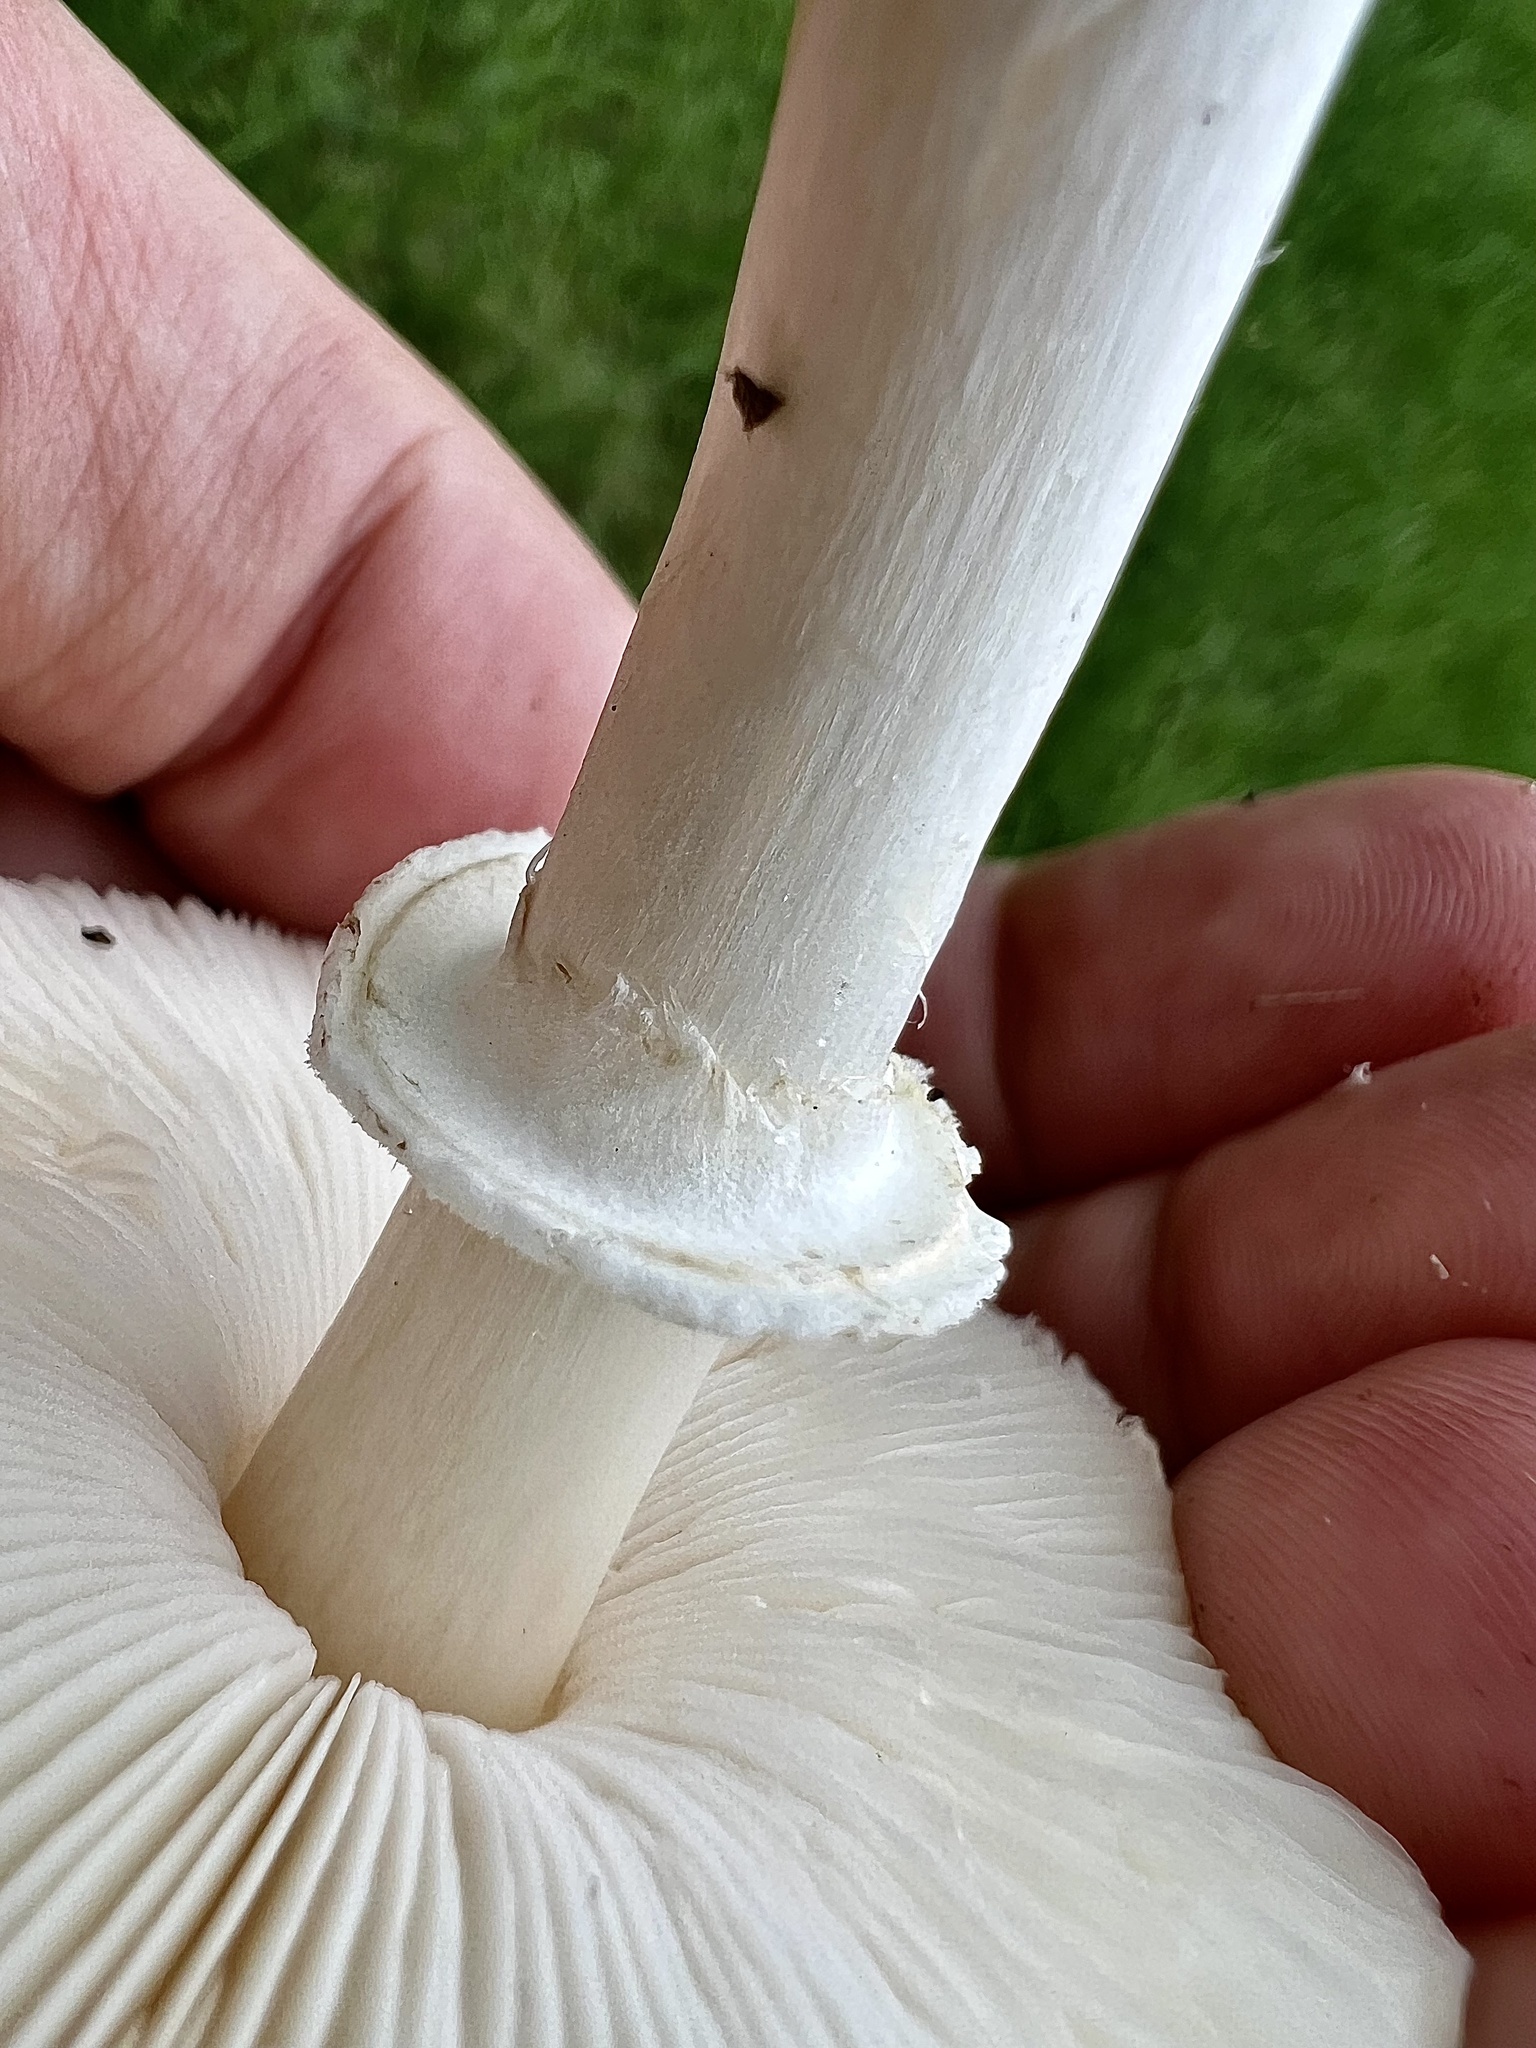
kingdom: Fungi
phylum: Basidiomycota
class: Agaricomycetes
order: Agaricales
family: Agaricaceae
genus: Leucoagaricus
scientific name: Leucoagaricus leucothites
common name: White dapperling
